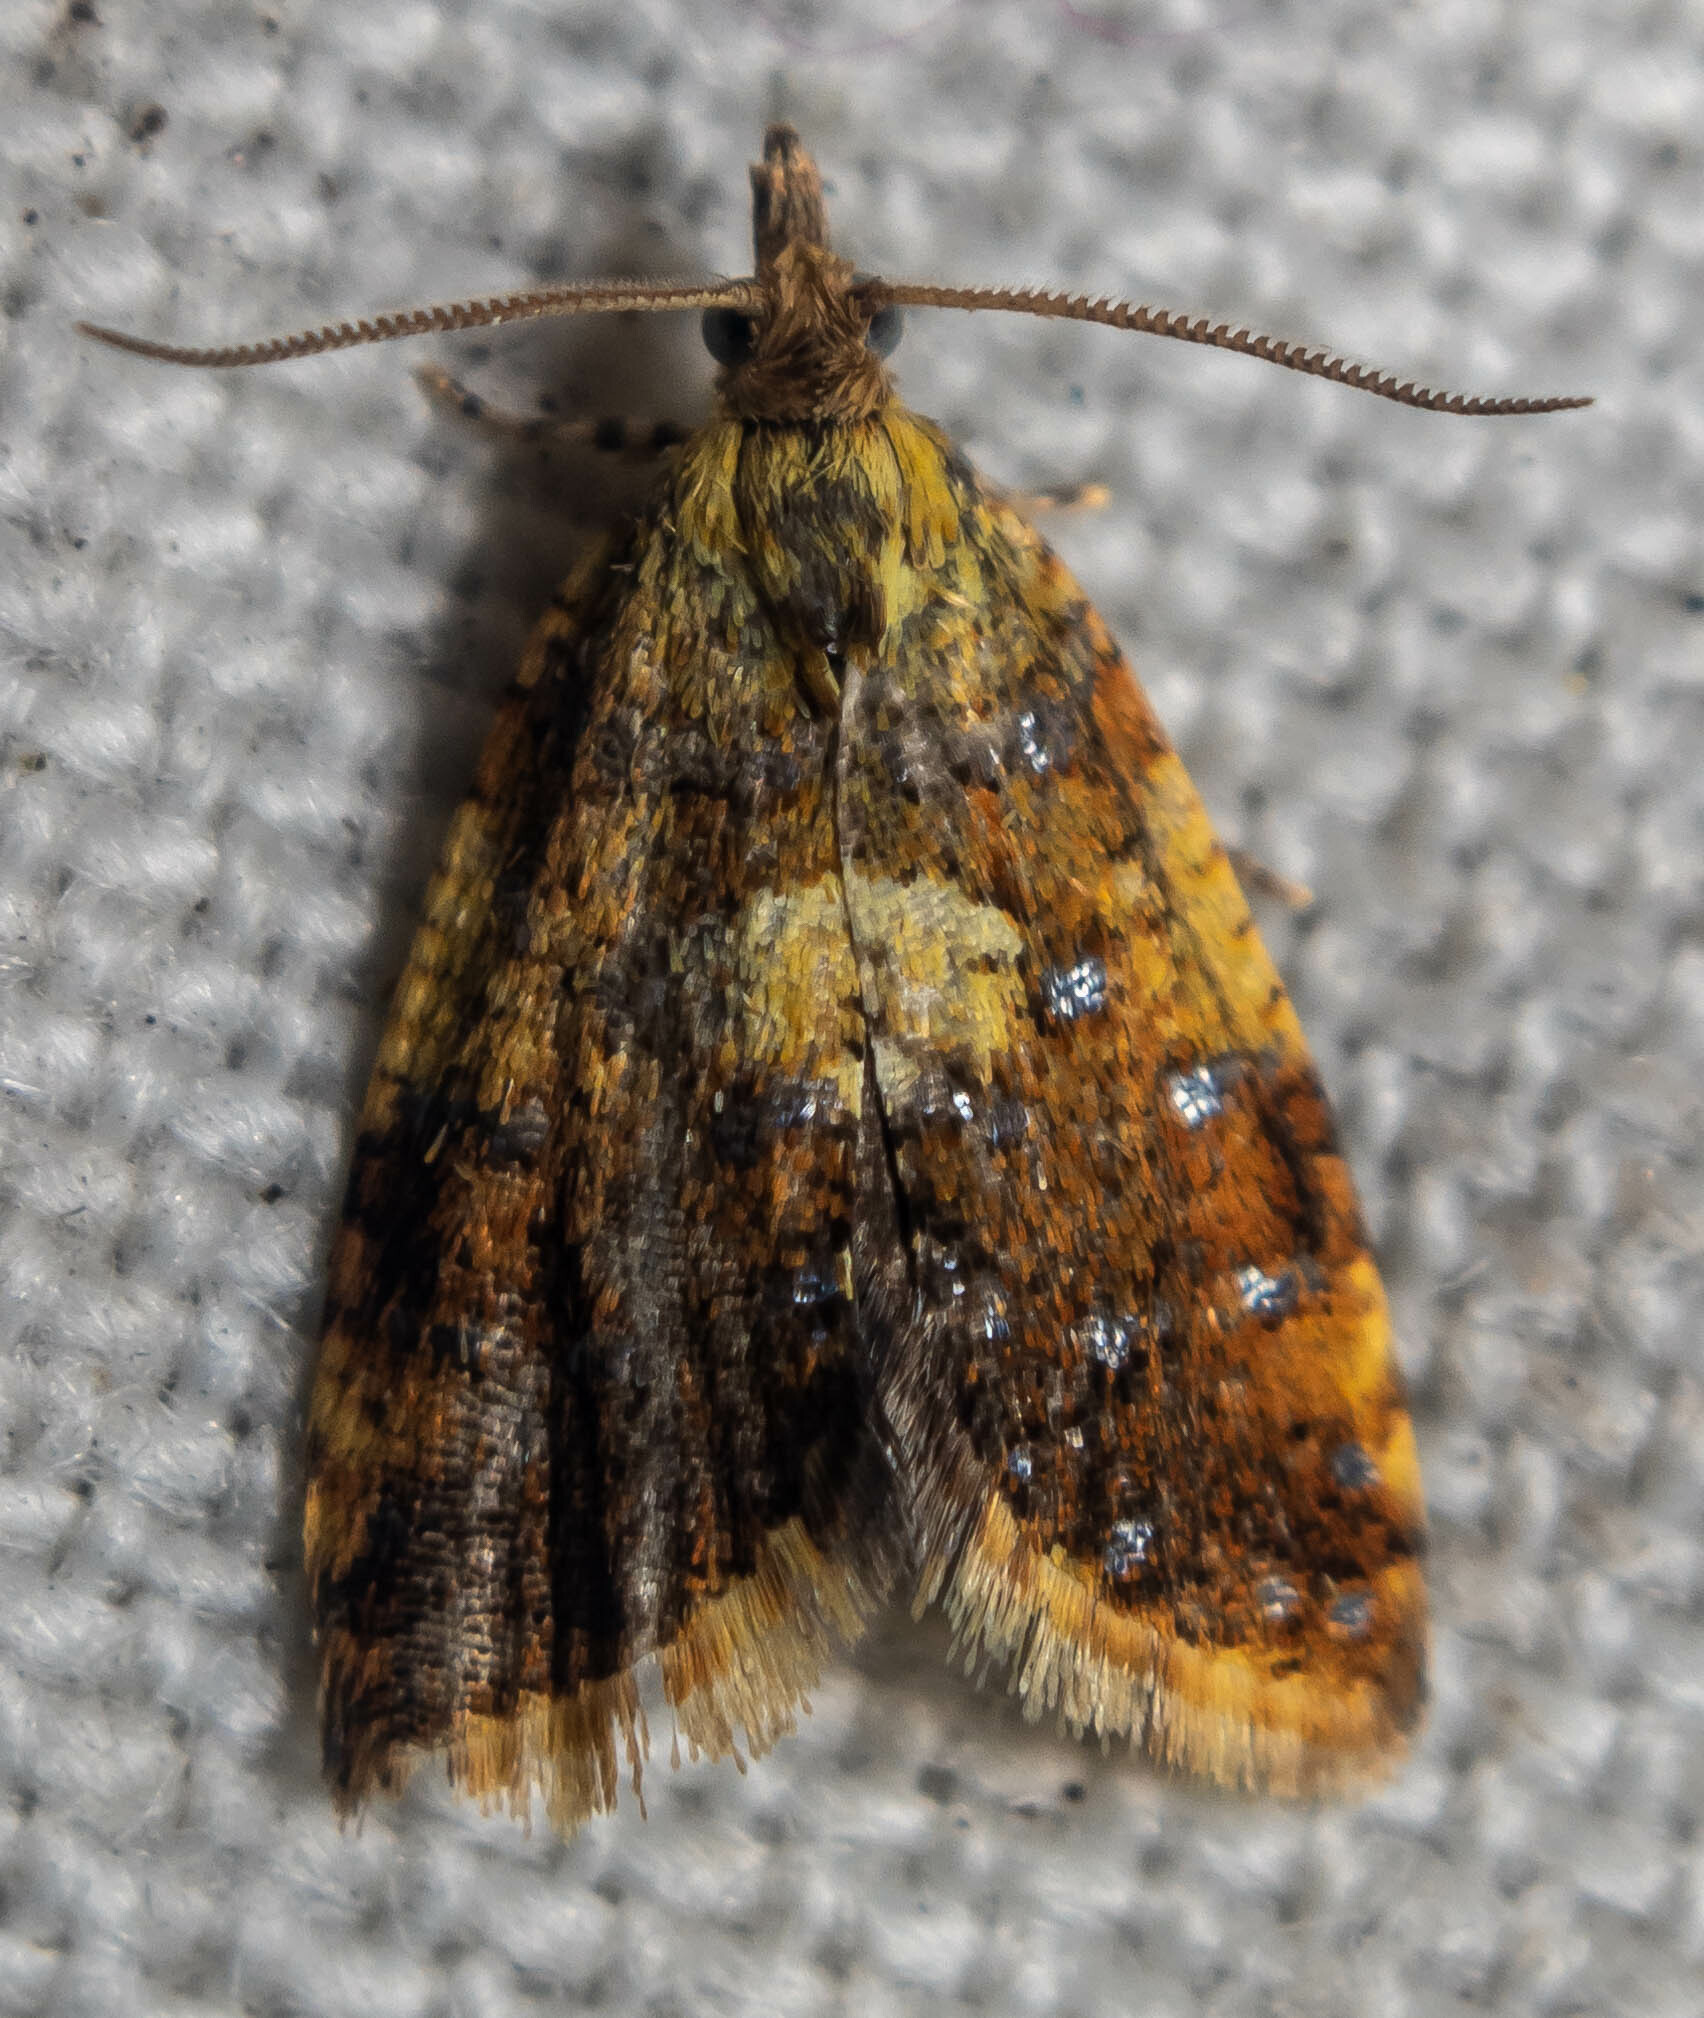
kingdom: Animalia
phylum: Arthropoda
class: Insecta
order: Lepidoptera
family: Tortricidae
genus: Pseudargyrotoza
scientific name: Pseudargyrotoza conwagana
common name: Yellow-spot twist
